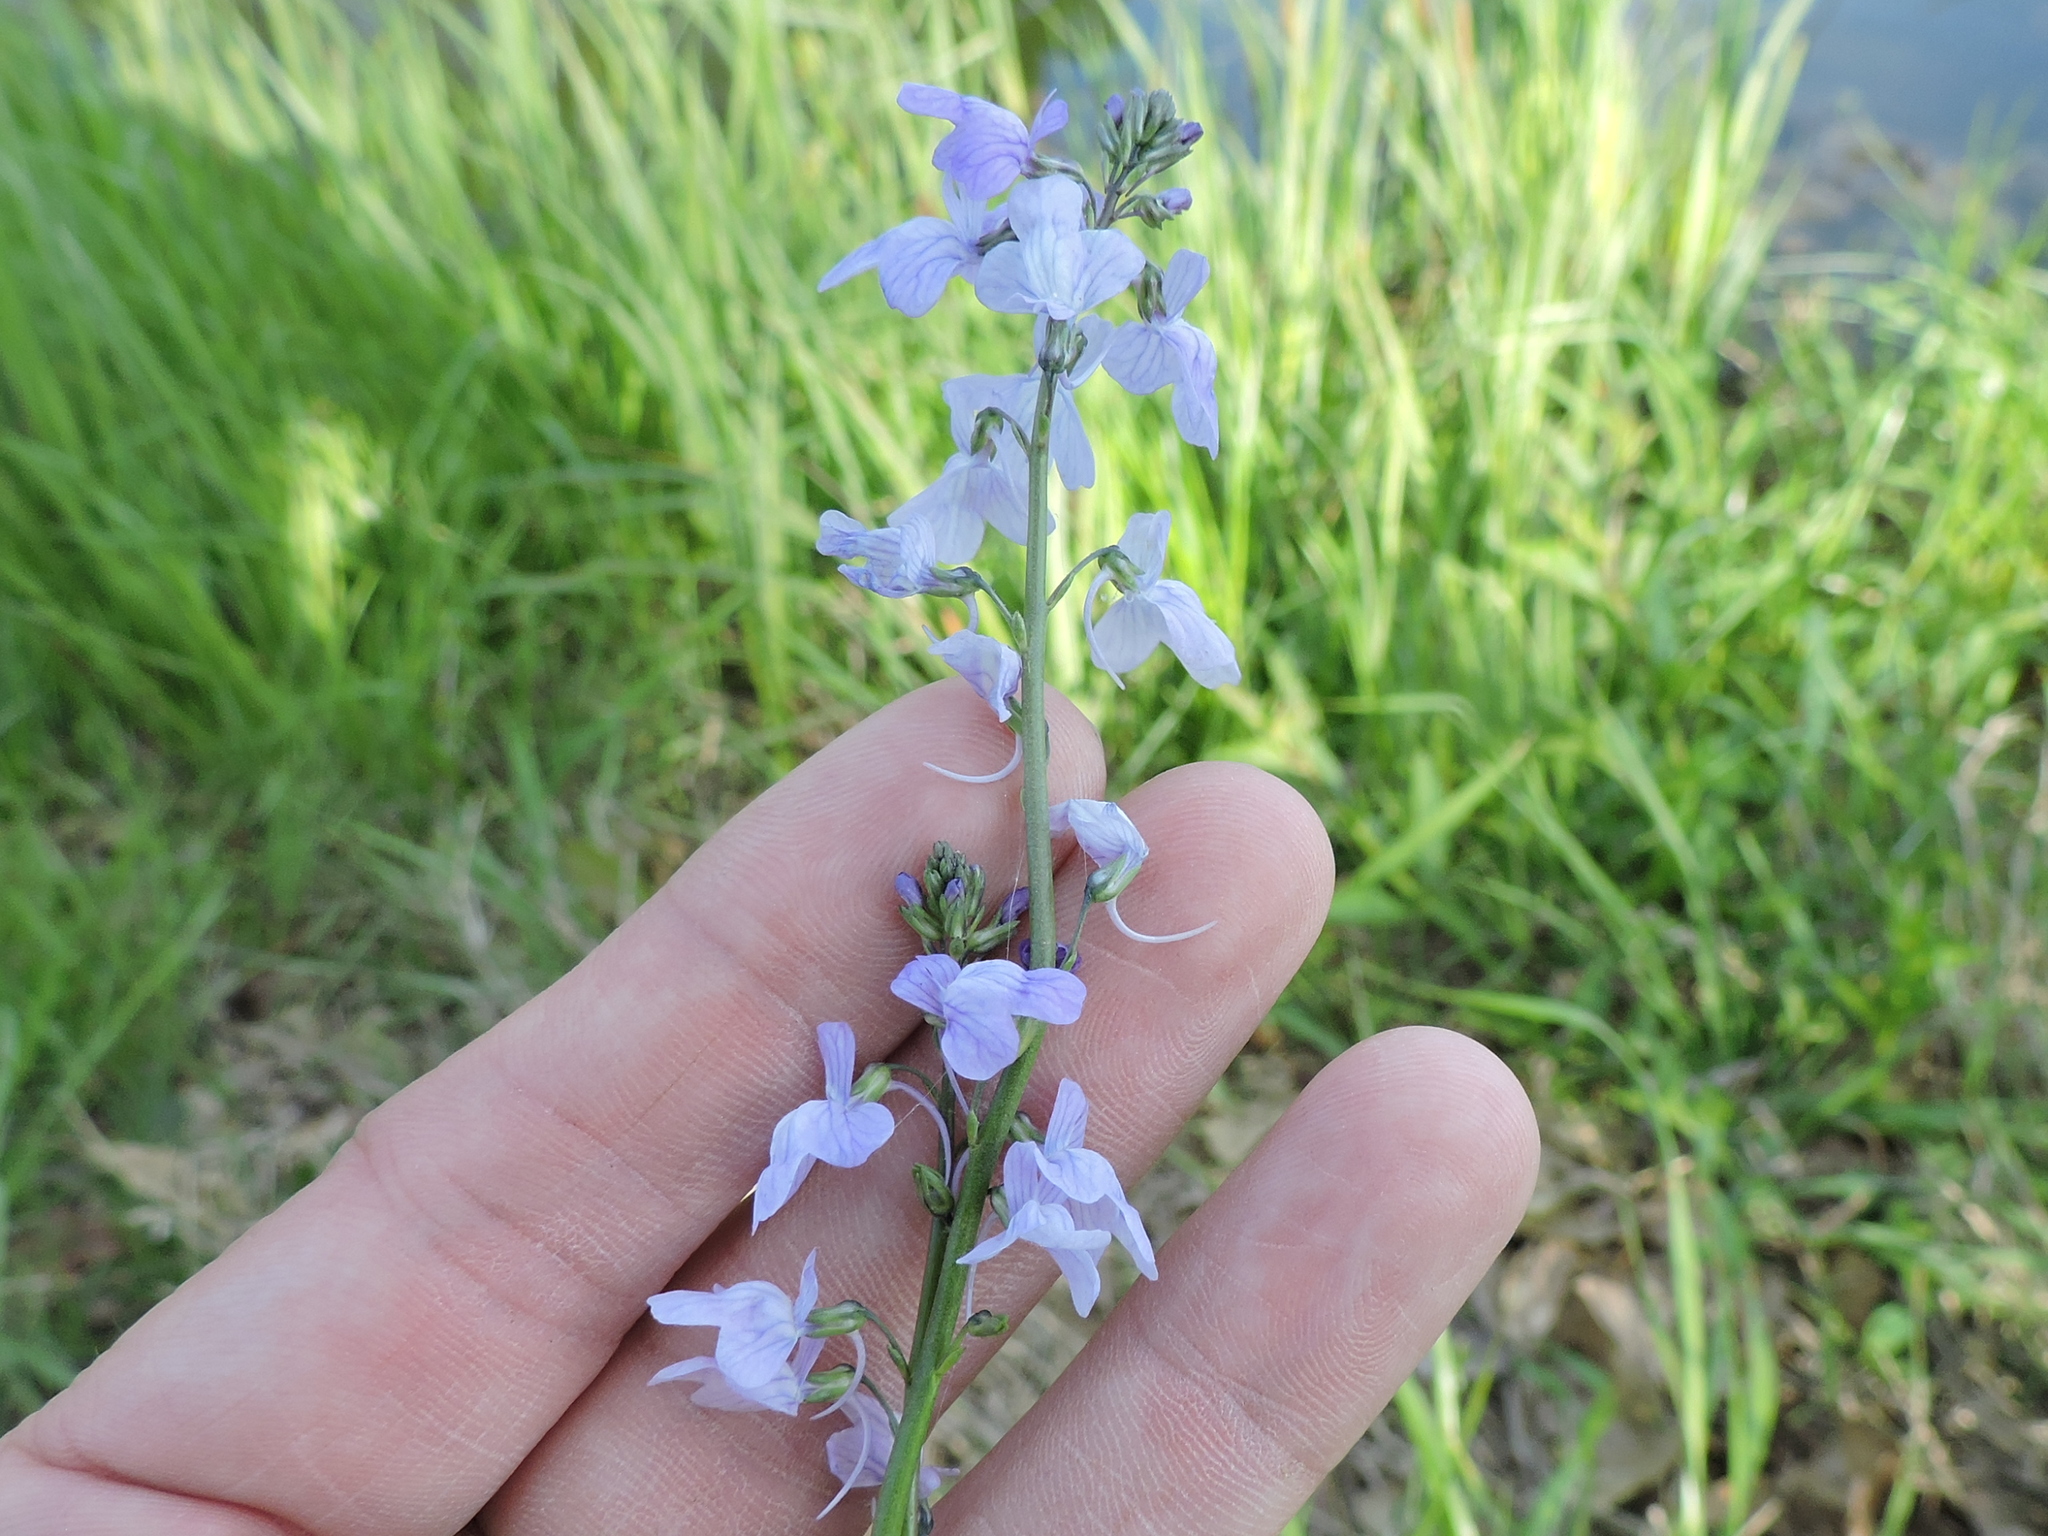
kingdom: Plantae
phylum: Tracheophyta
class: Magnoliopsida
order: Lamiales
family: Plantaginaceae
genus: Nuttallanthus
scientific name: Nuttallanthus texanus
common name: Texas toadflax
